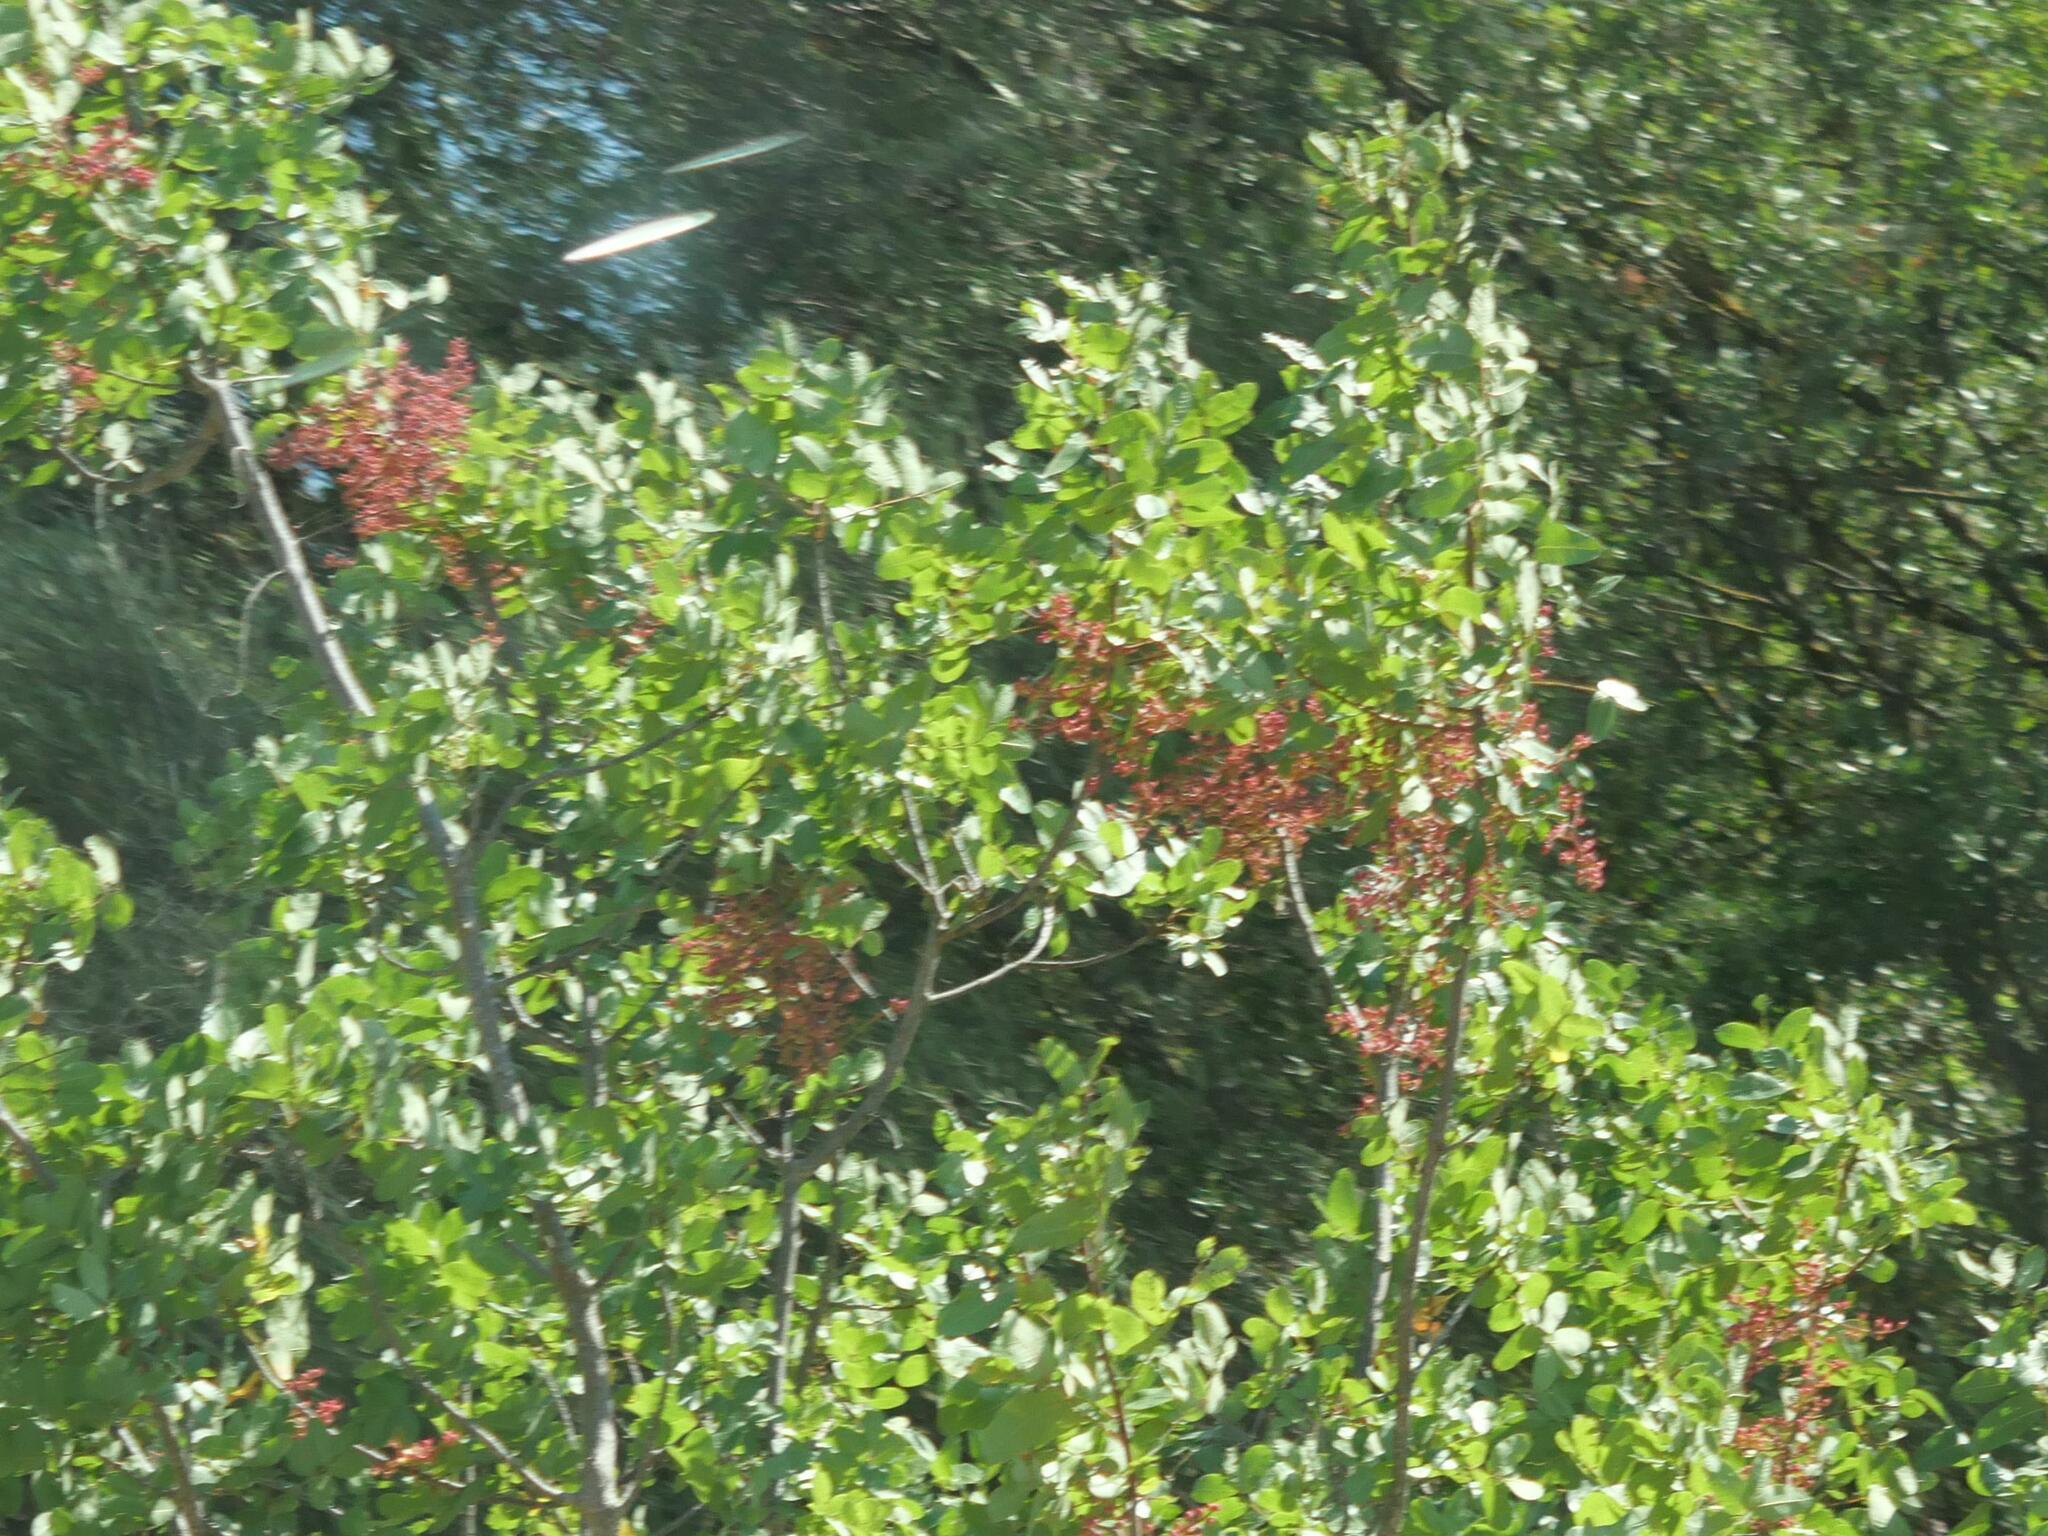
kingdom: Plantae
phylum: Tracheophyta
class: Magnoliopsida
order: Sapindales
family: Anacardiaceae
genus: Pistacia
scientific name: Pistacia terebinthus
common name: Terebinth
